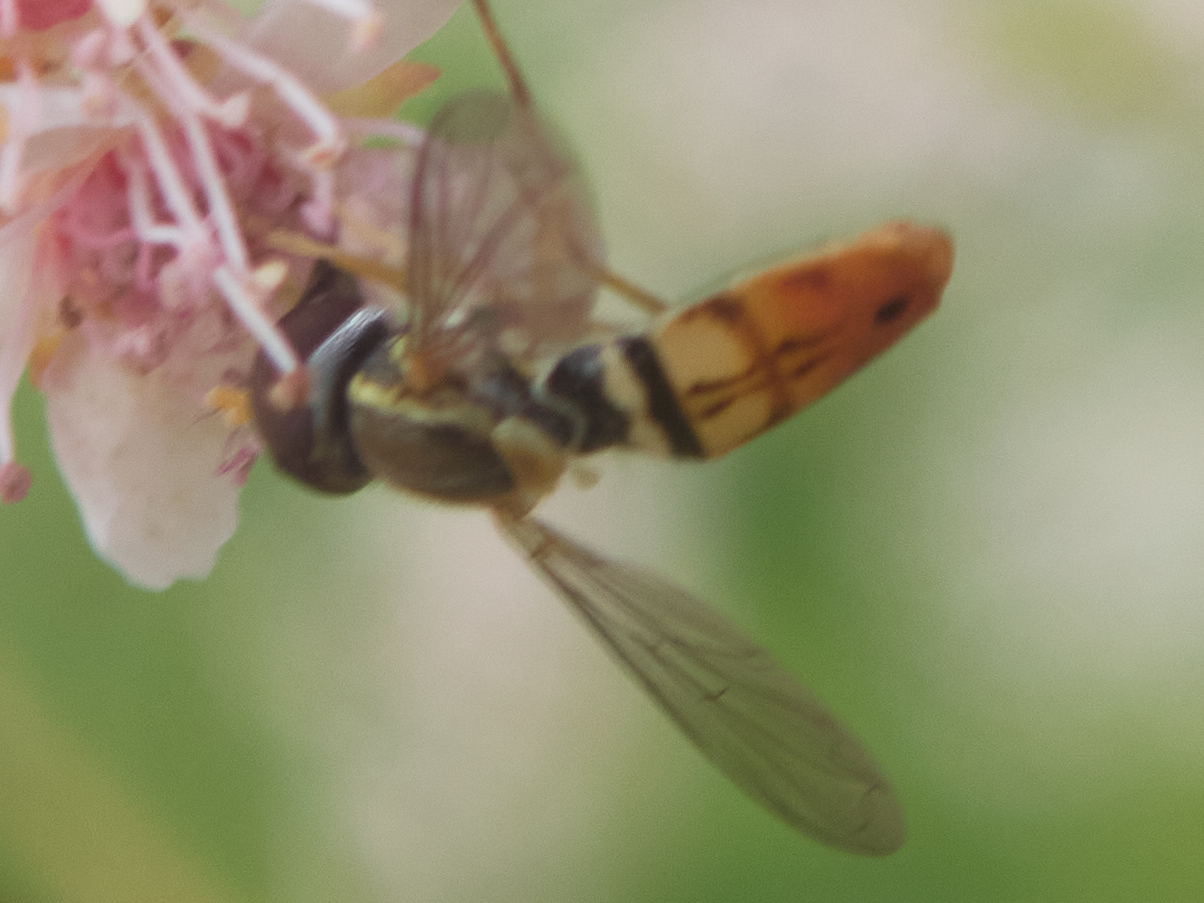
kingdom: Animalia
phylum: Arthropoda
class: Insecta
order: Diptera
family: Syrphidae
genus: Toxomerus
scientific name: Toxomerus marginatus
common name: Syrphid fly
